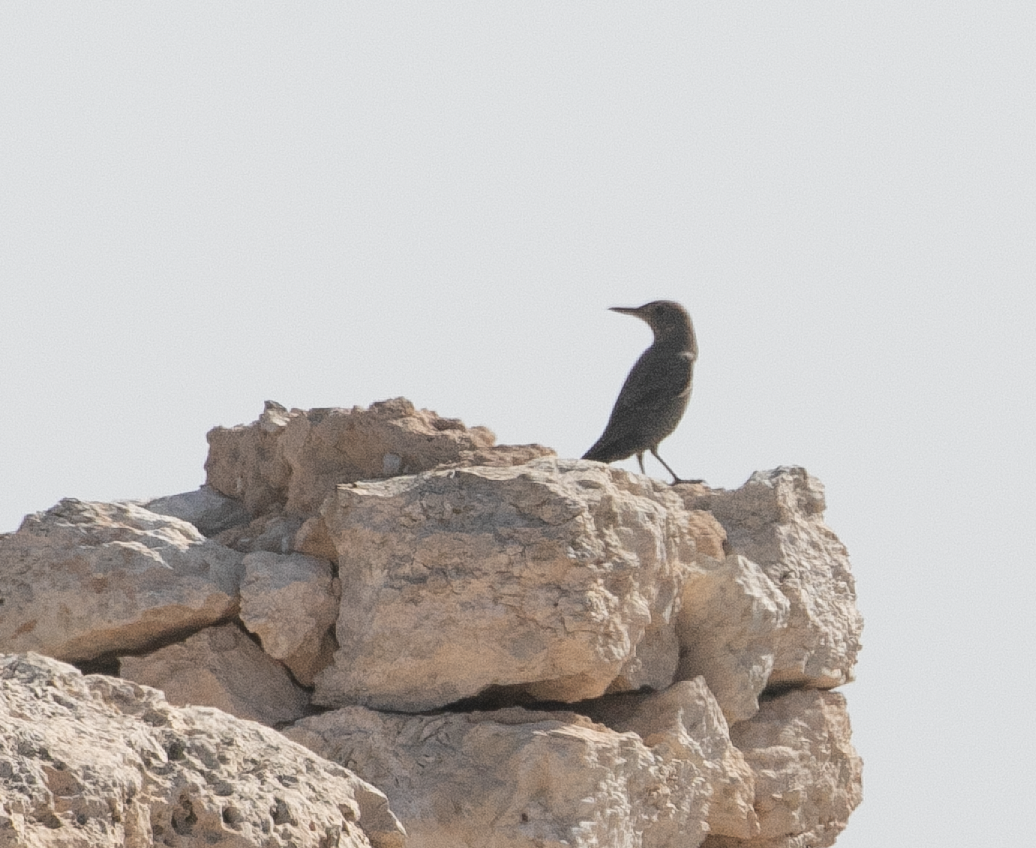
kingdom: Animalia
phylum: Chordata
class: Aves
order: Passeriformes
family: Muscicapidae
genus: Monticola
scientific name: Monticola solitarius
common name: Blue rock thrush
